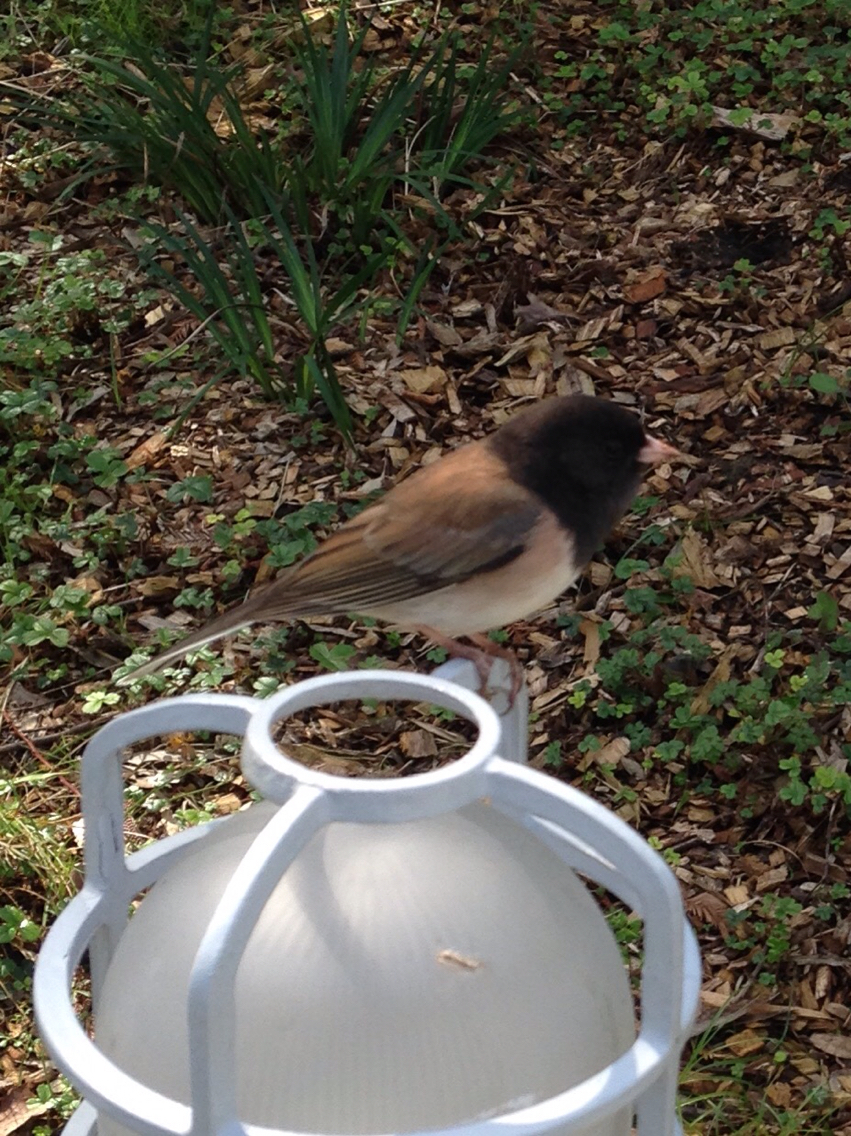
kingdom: Animalia
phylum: Chordata
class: Aves
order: Passeriformes
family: Passerellidae
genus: Junco
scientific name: Junco hyemalis
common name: Dark-eyed junco
